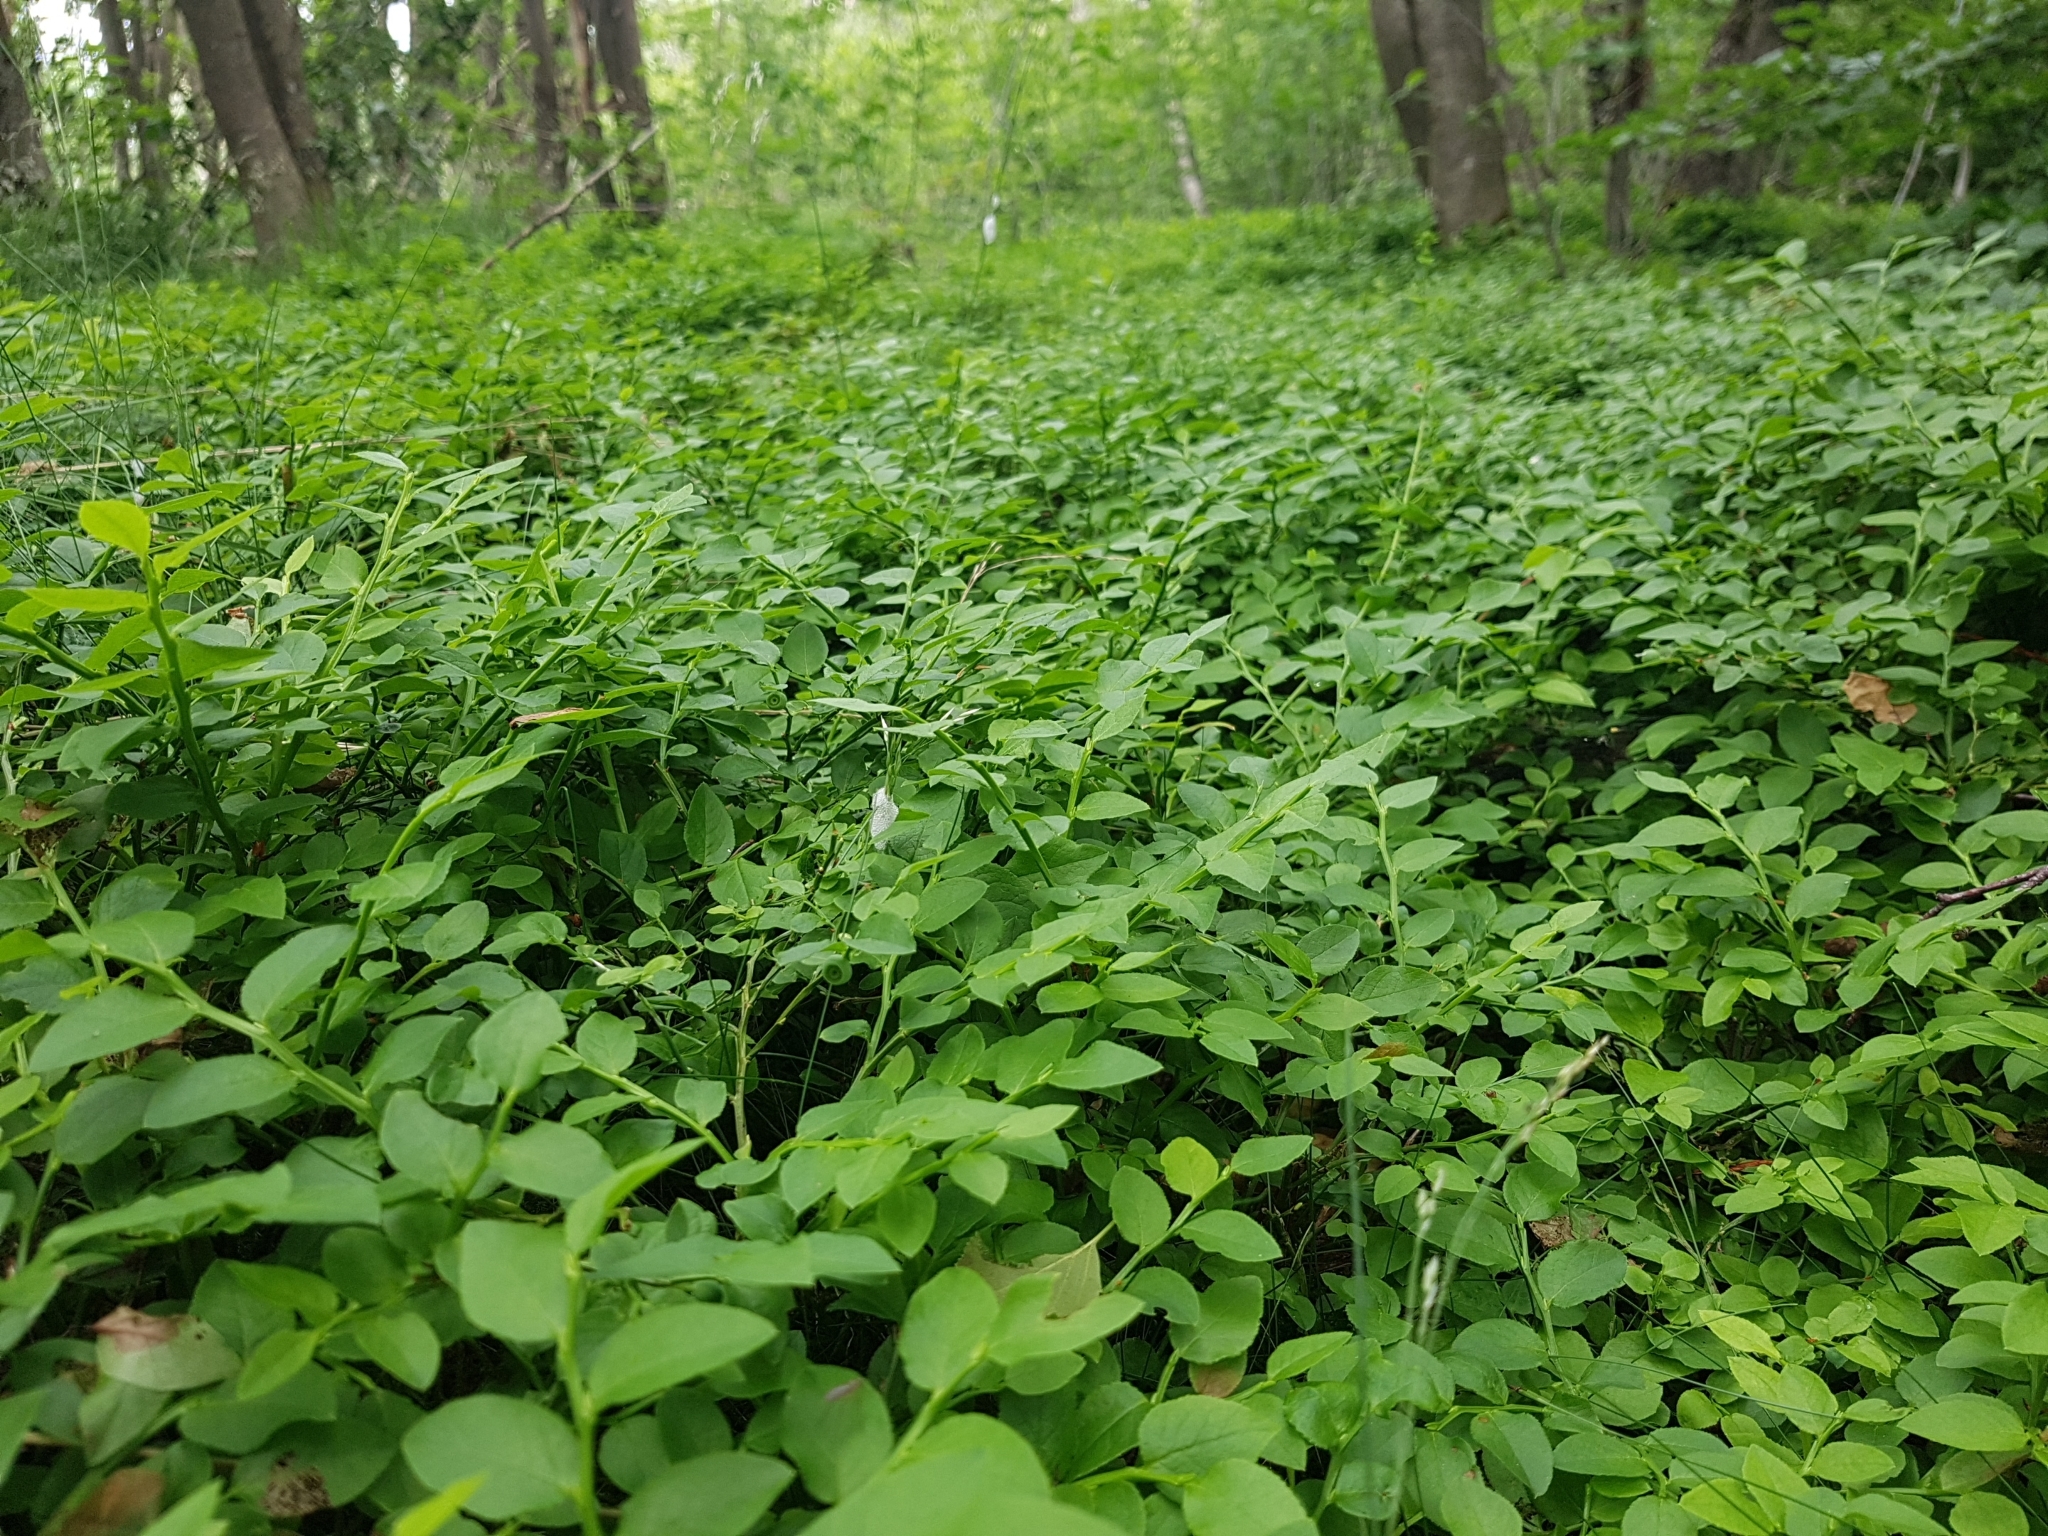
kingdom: Plantae
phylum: Tracheophyta
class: Magnoliopsida
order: Ericales
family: Ericaceae
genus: Vaccinium
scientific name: Vaccinium myrtillus
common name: Bilberry
